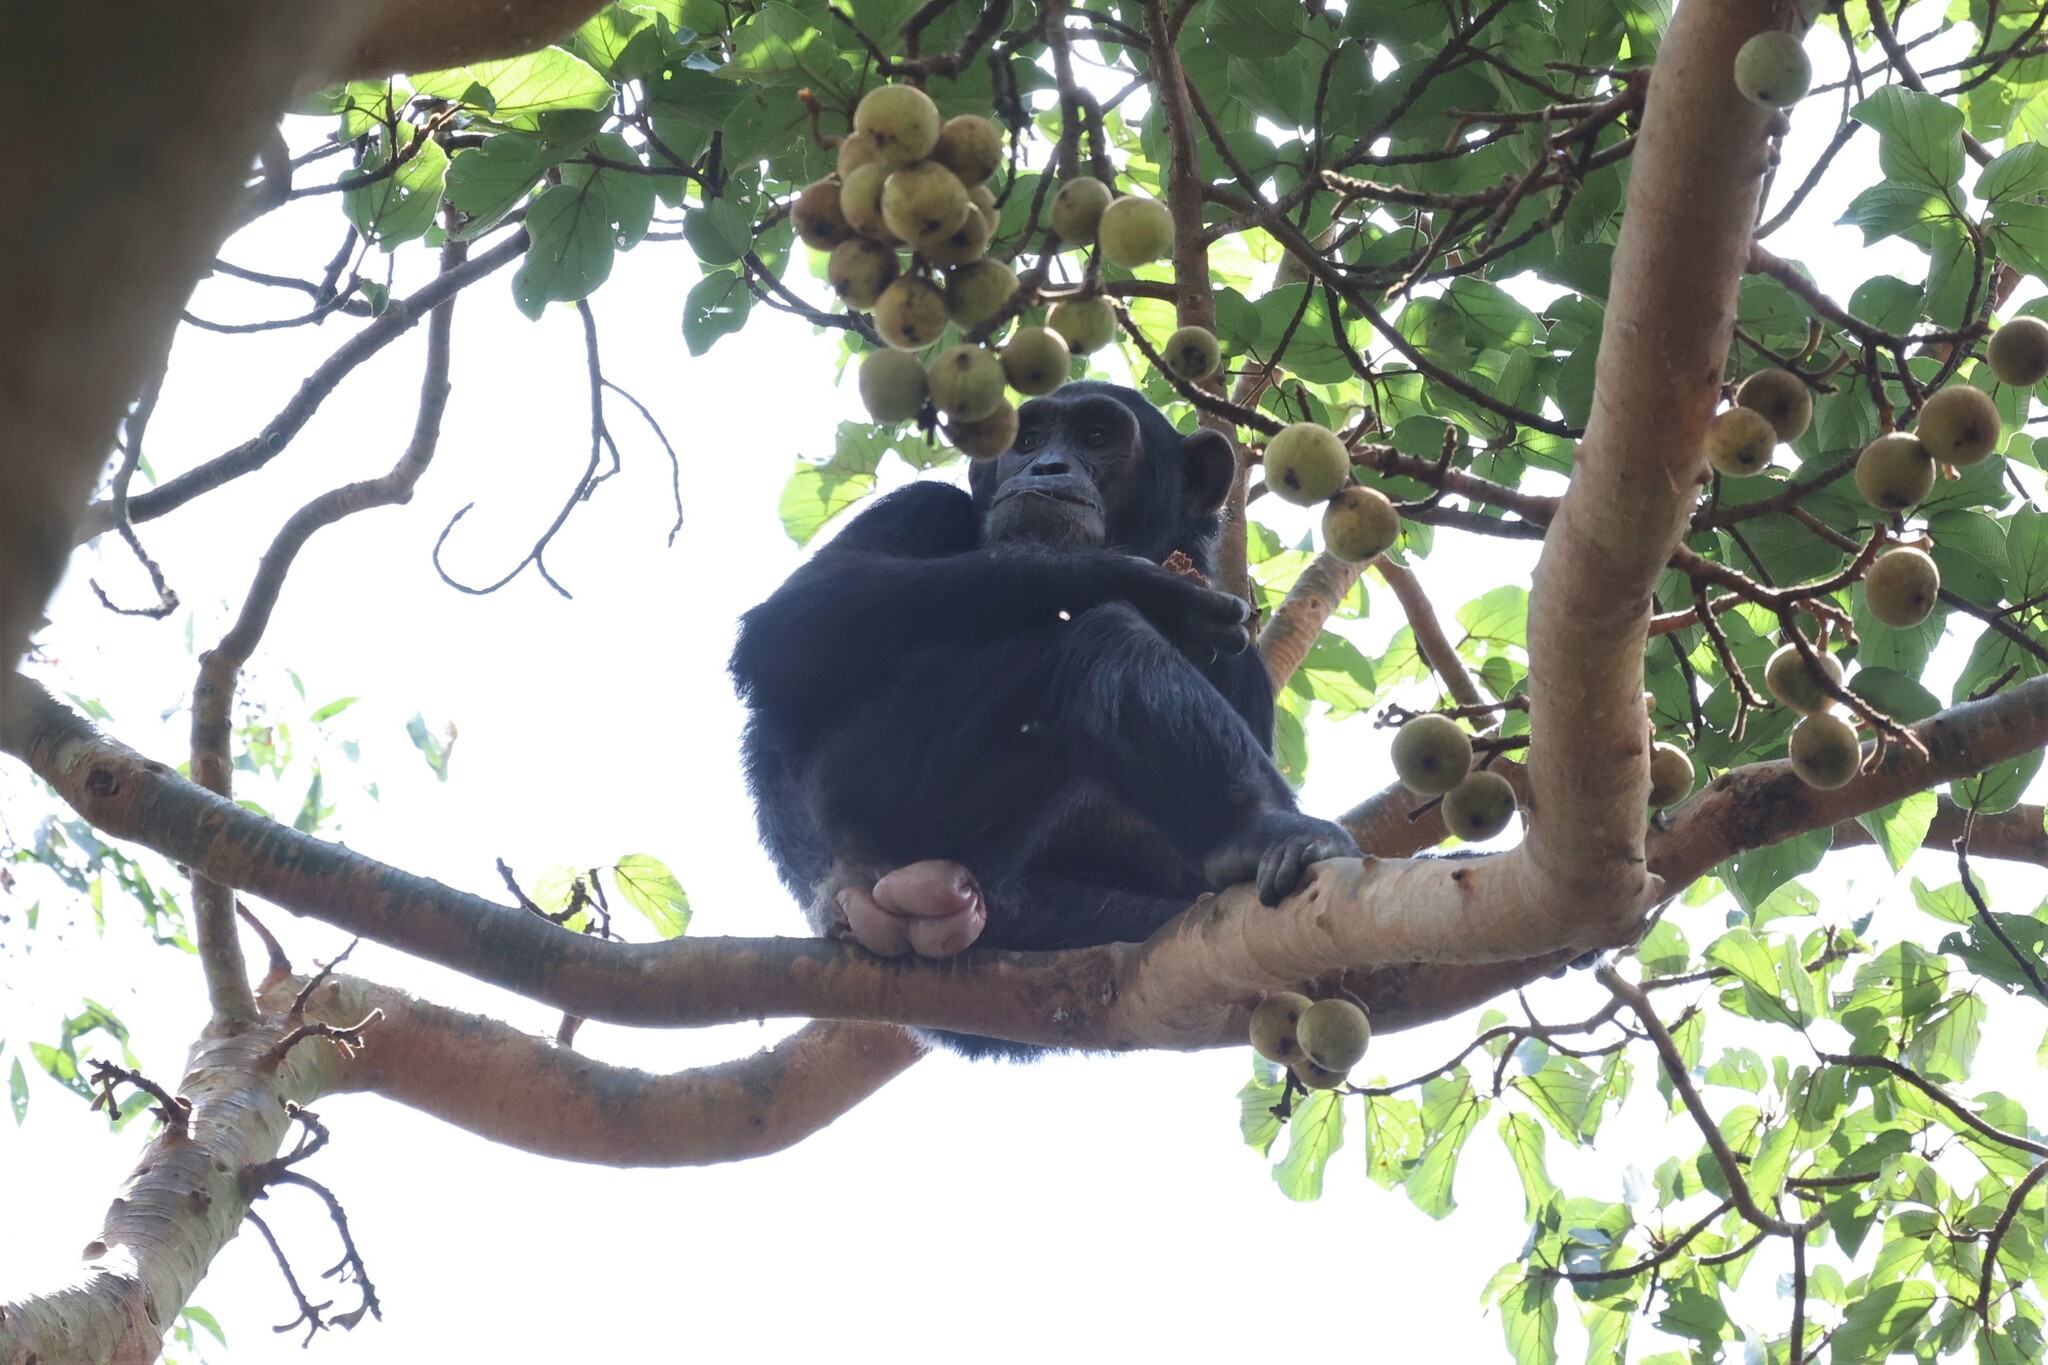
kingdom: Animalia
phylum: Chordata
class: Mammalia
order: Primates
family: Hominidae
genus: Pan
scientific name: Pan troglodytes
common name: Chimpanzee
